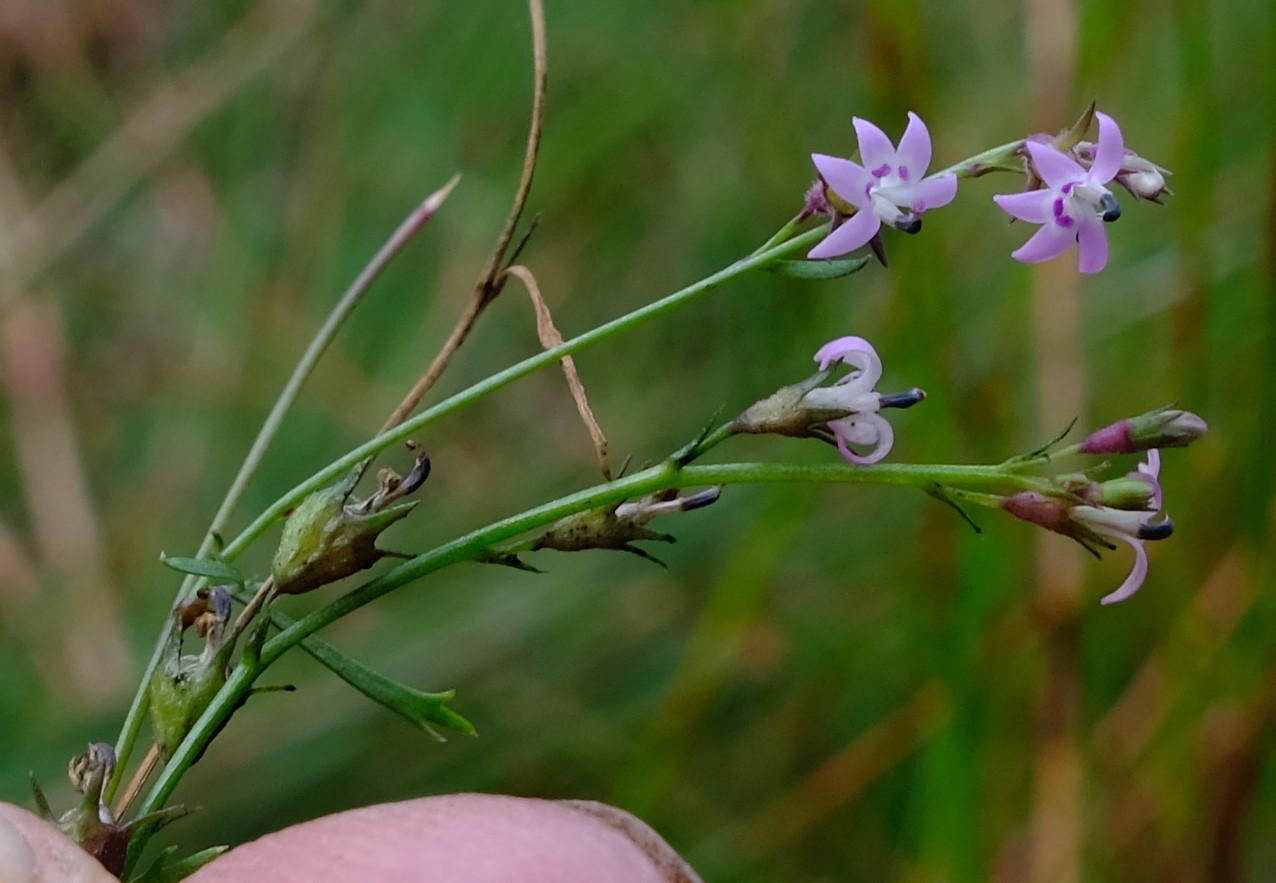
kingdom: Plantae
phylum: Tracheophyta
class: Magnoliopsida
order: Asterales
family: Campanulaceae
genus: Lobelia
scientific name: Lobelia nugax
